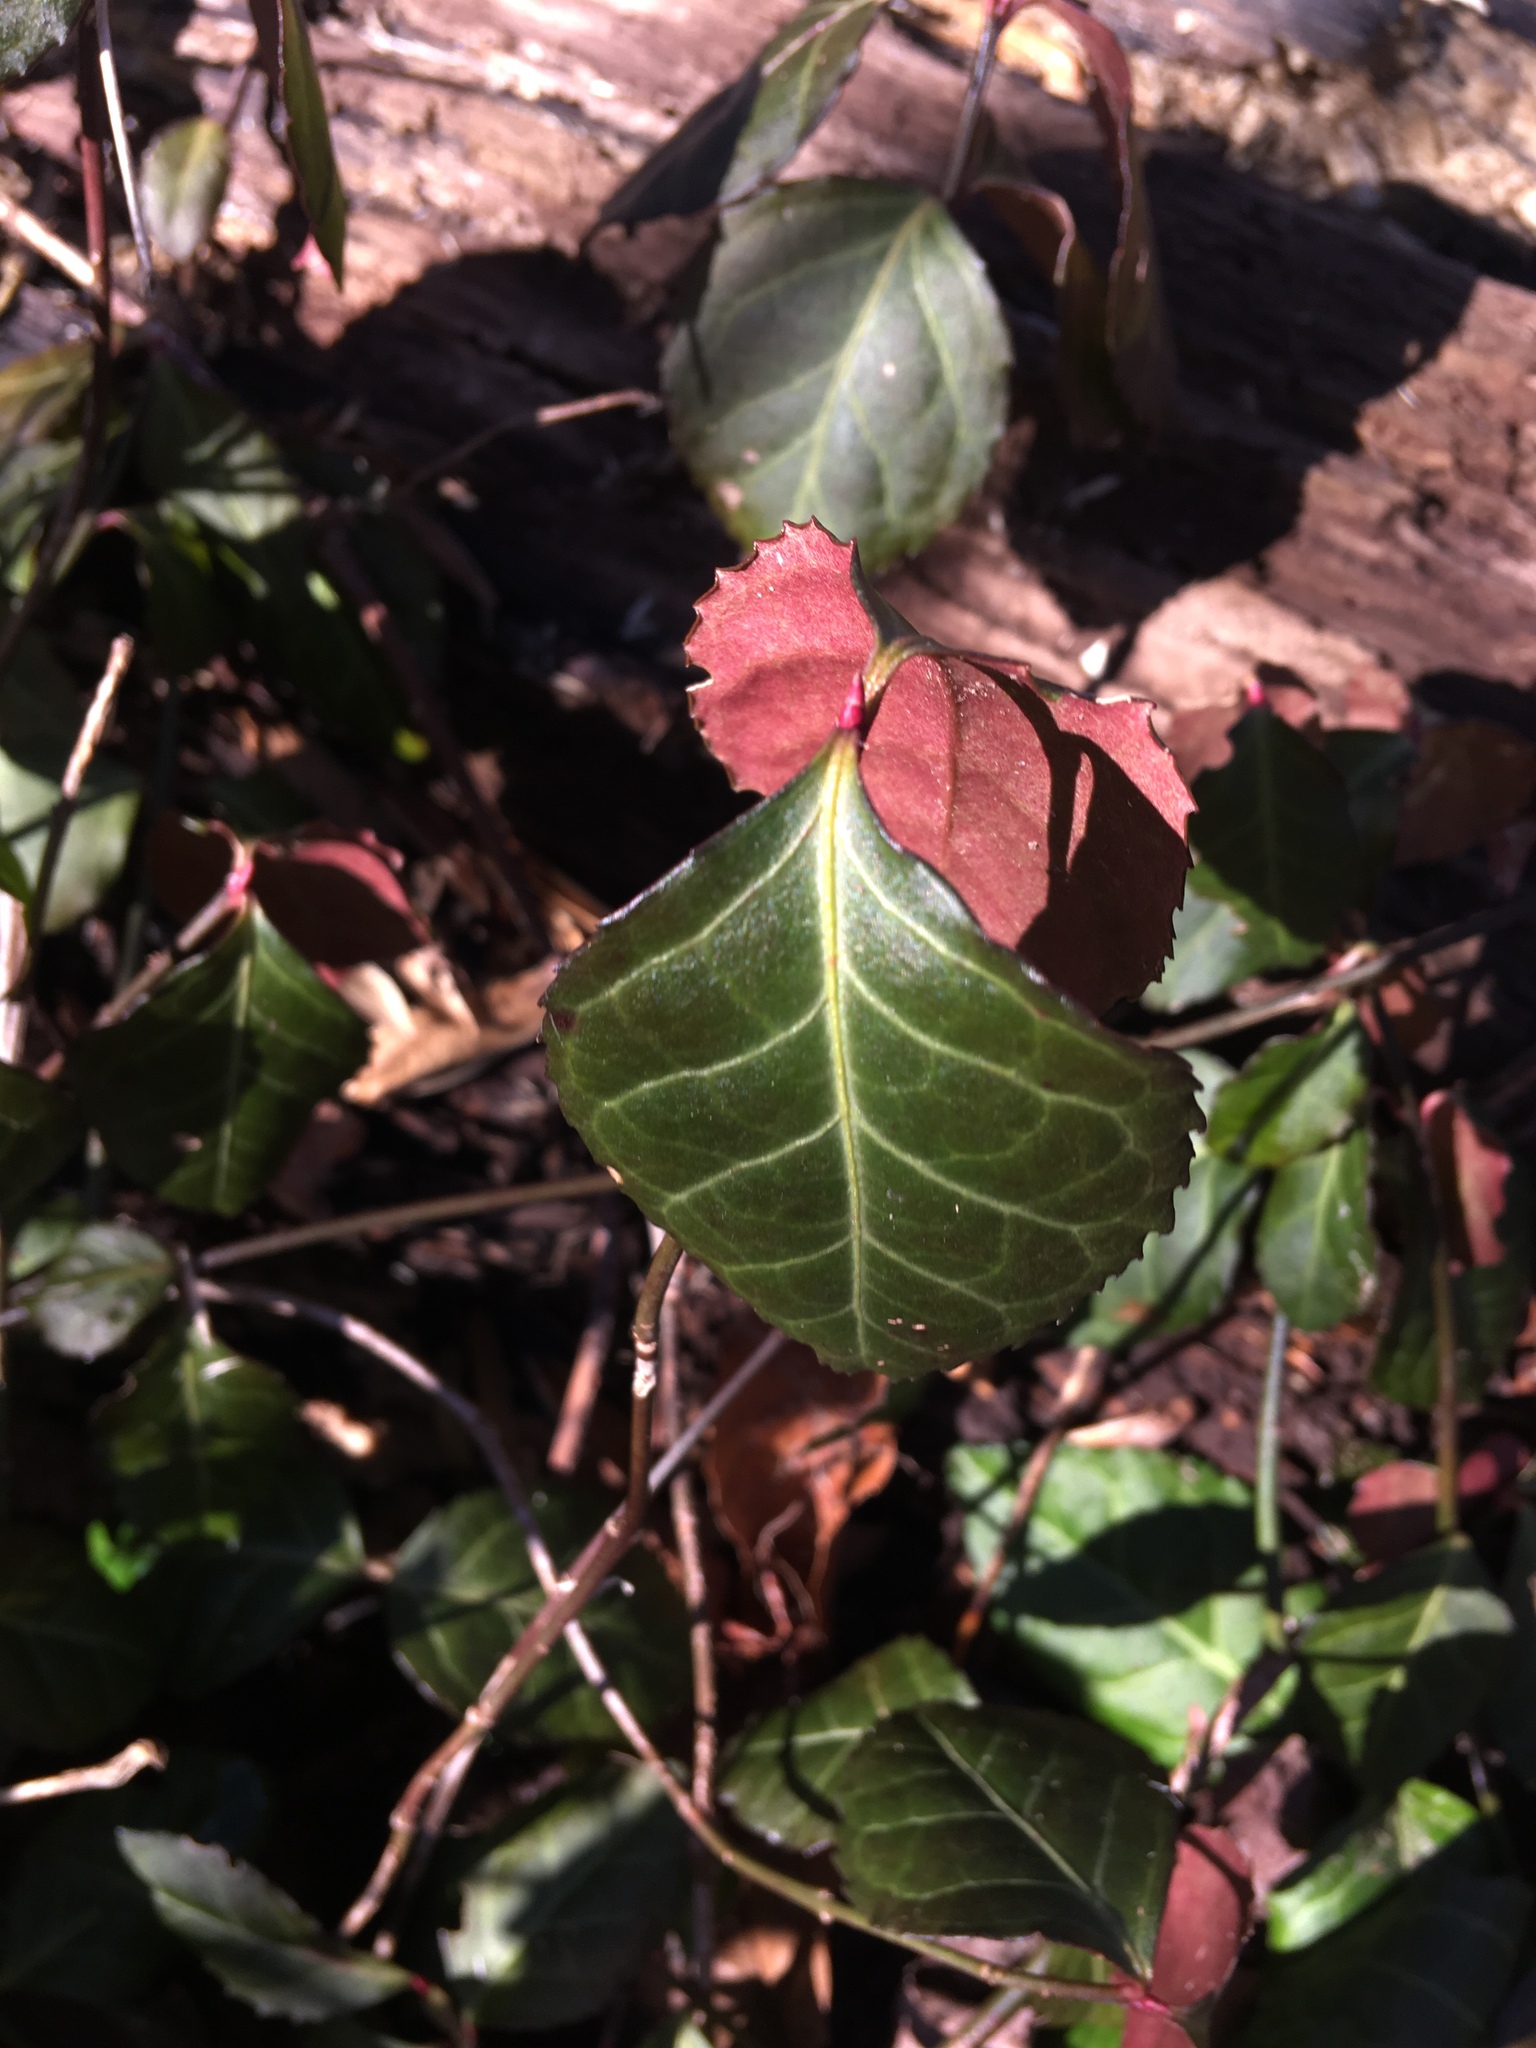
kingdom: Plantae
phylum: Tracheophyta
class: Magnoliopsida
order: Celastrales
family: Celastraceae
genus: Euonymus
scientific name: Euonymus fortunei
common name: Climbing euonymus
